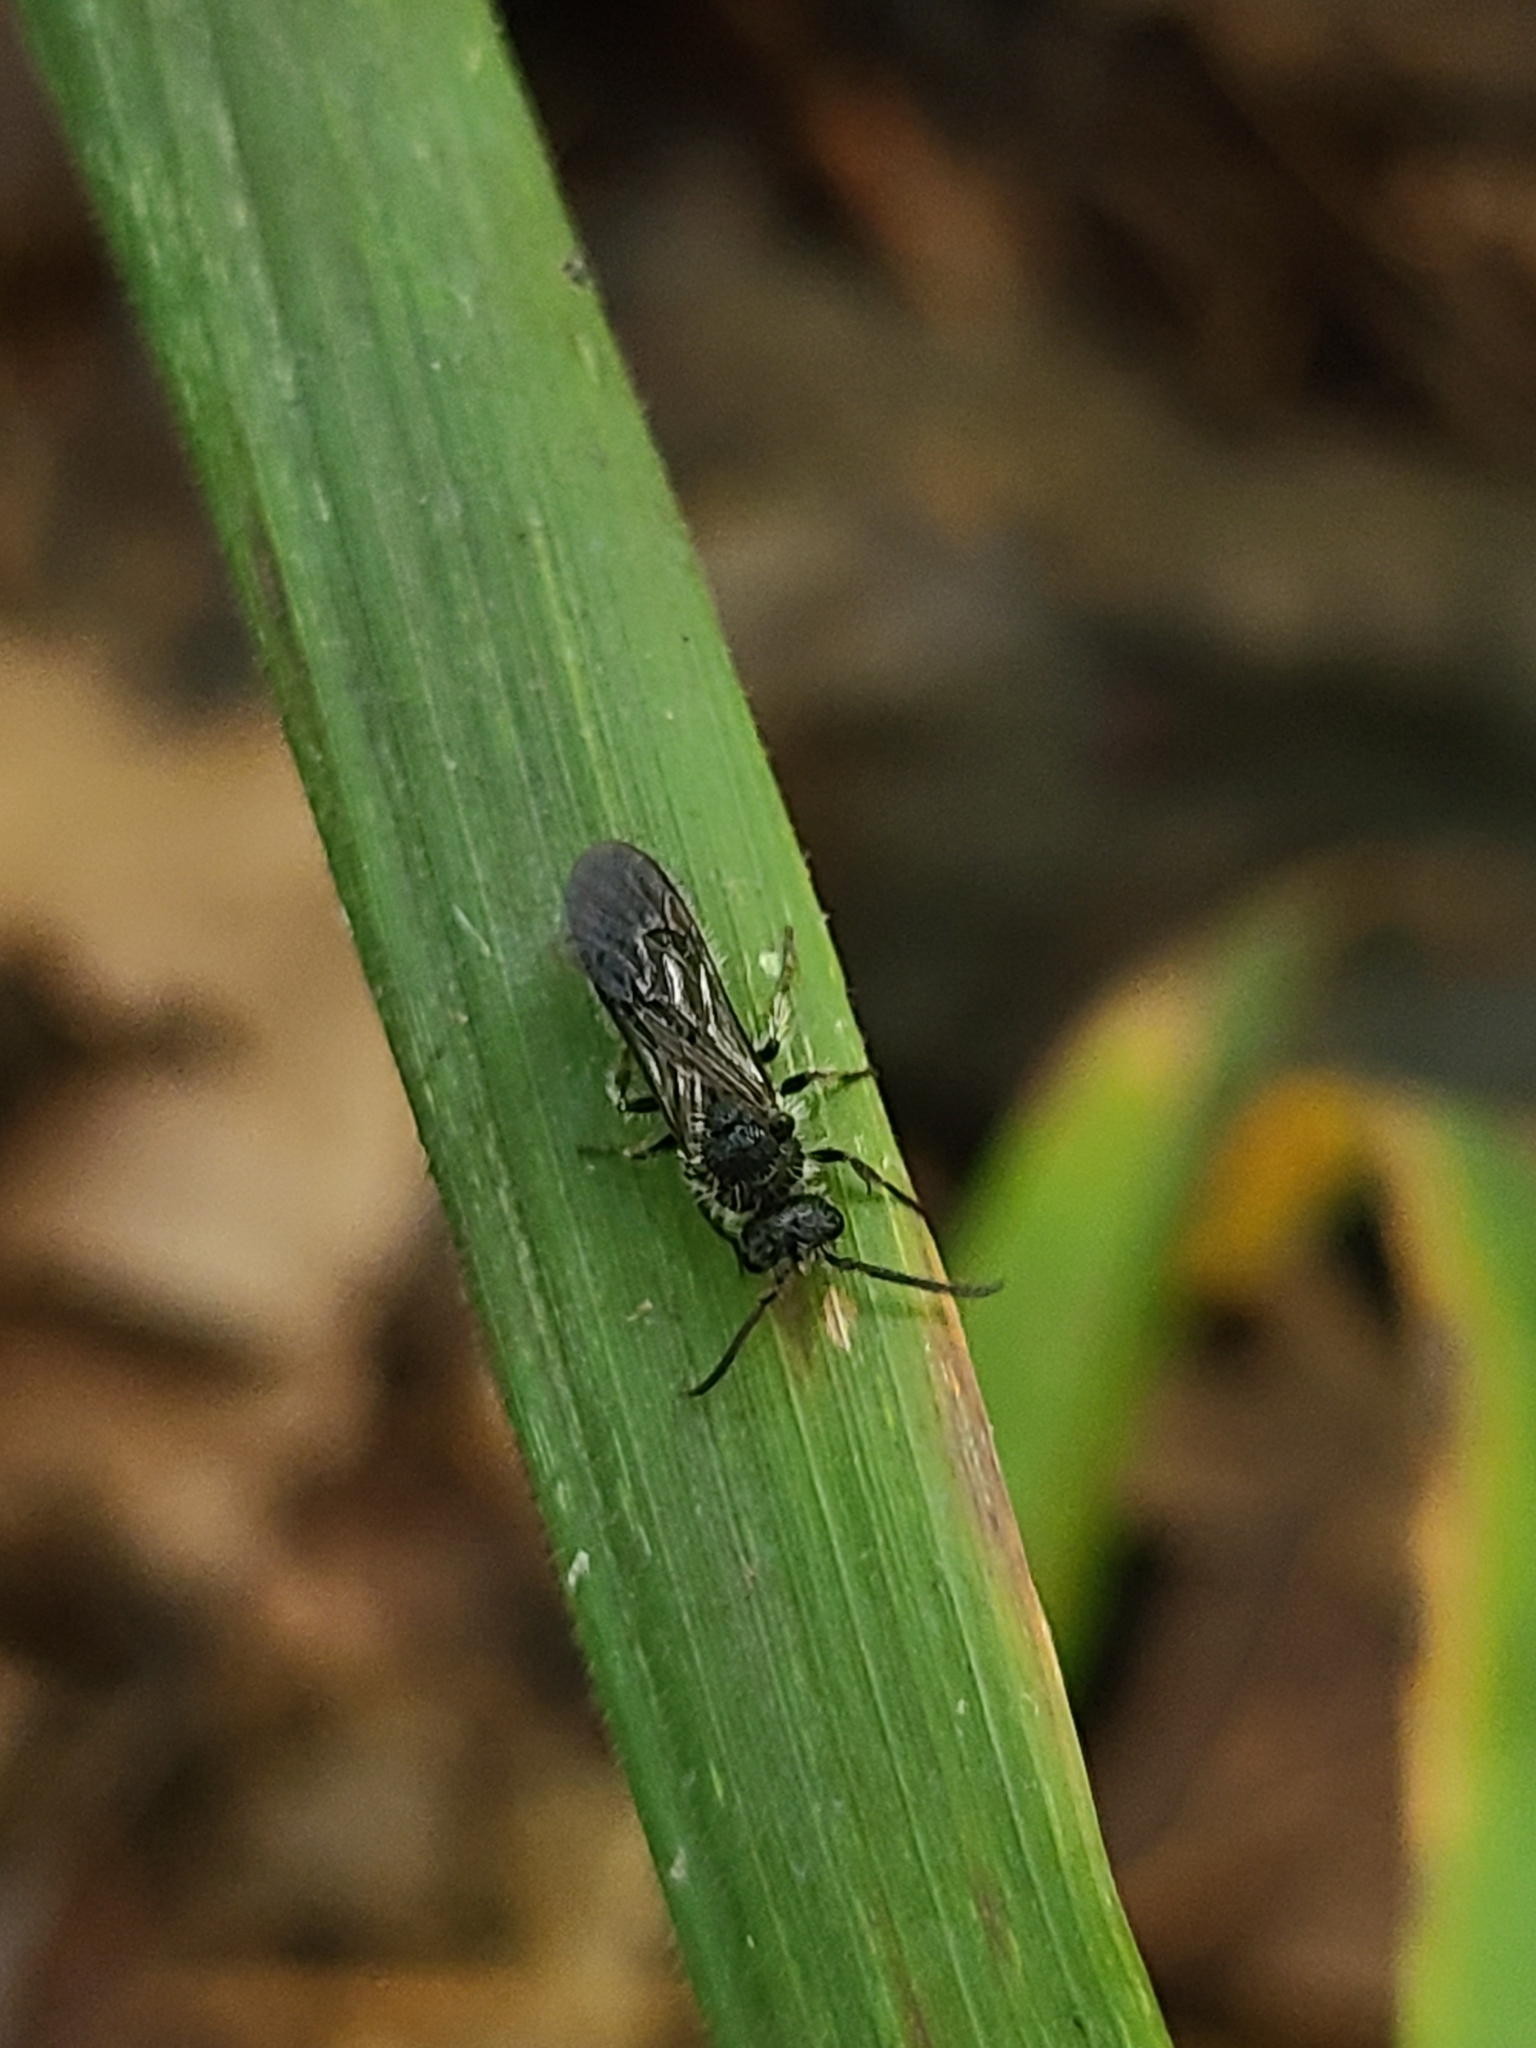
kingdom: Animalia
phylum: Arthropoda
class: Insecta
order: Hymenoptera
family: Mutillidae
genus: Pseudomethoca
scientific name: Pseudomethoca
